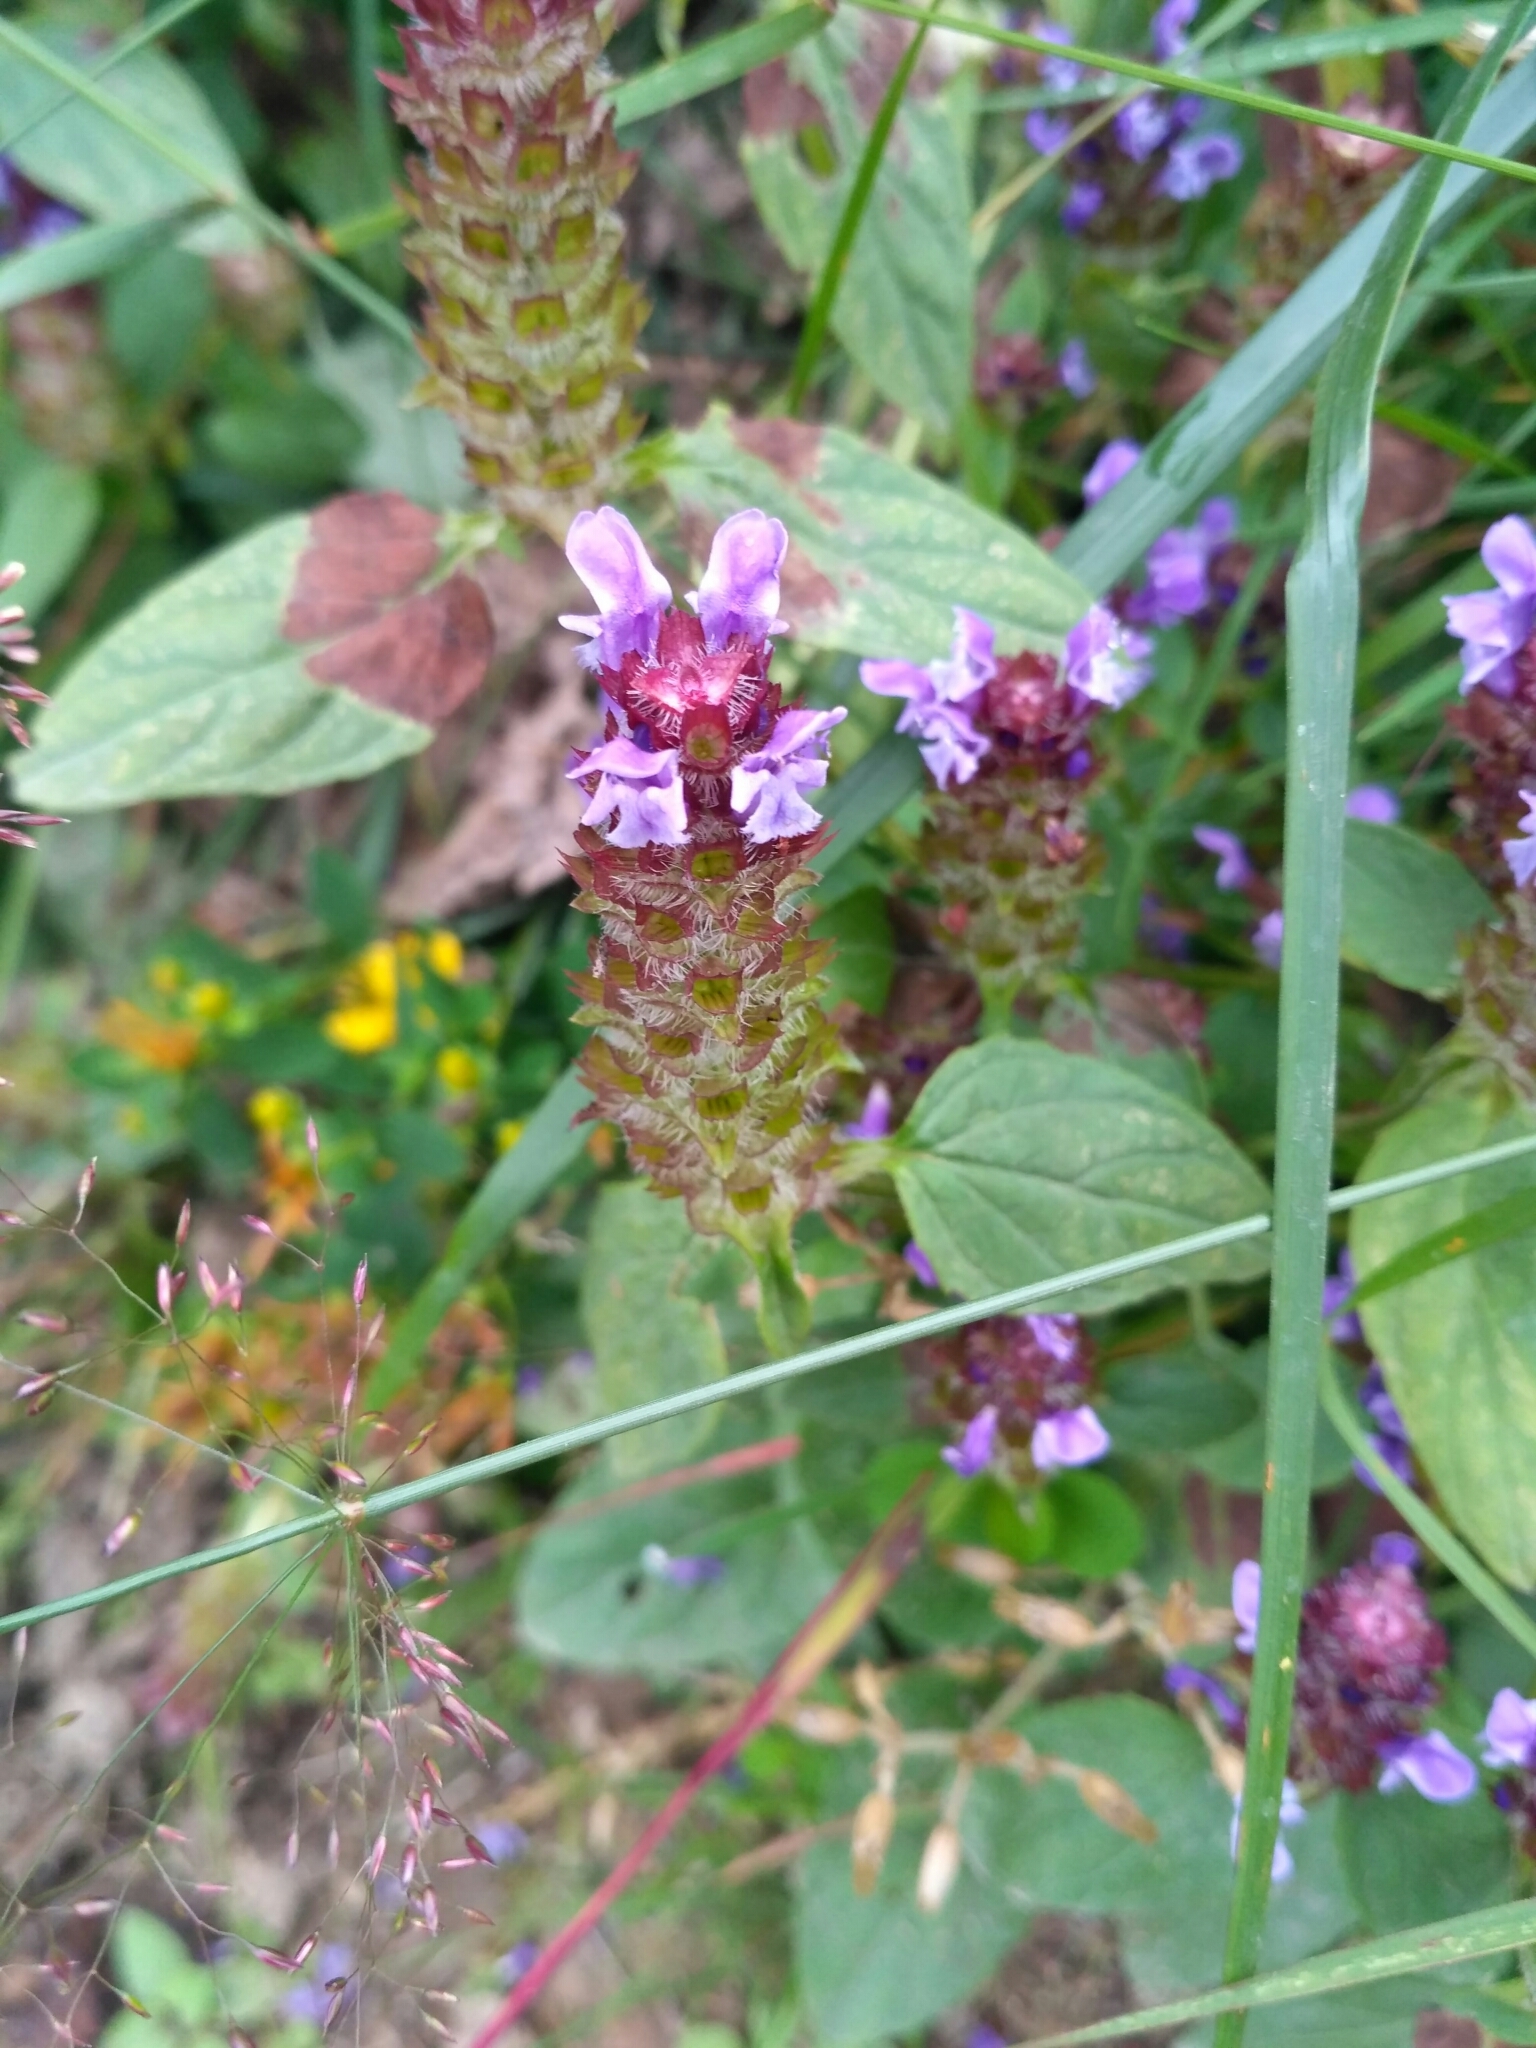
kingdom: Plantae
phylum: Tracheophyta
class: Magnoliopsida
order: Lamiales
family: Lamiaceae
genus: Prunella
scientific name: Prunella vulgaris
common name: Heal-all
